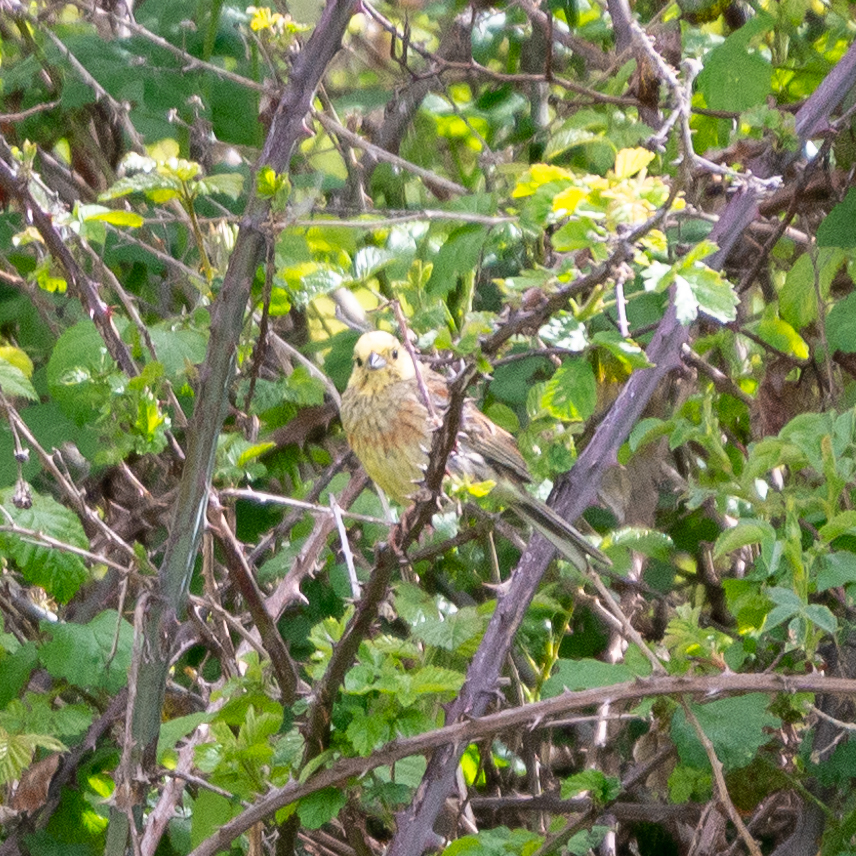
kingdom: Animalia
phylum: Chordata
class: Aves
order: Passeriformes
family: Emberizidae
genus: Emberiza
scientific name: Emberiza citrinella
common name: Yellowhammer
